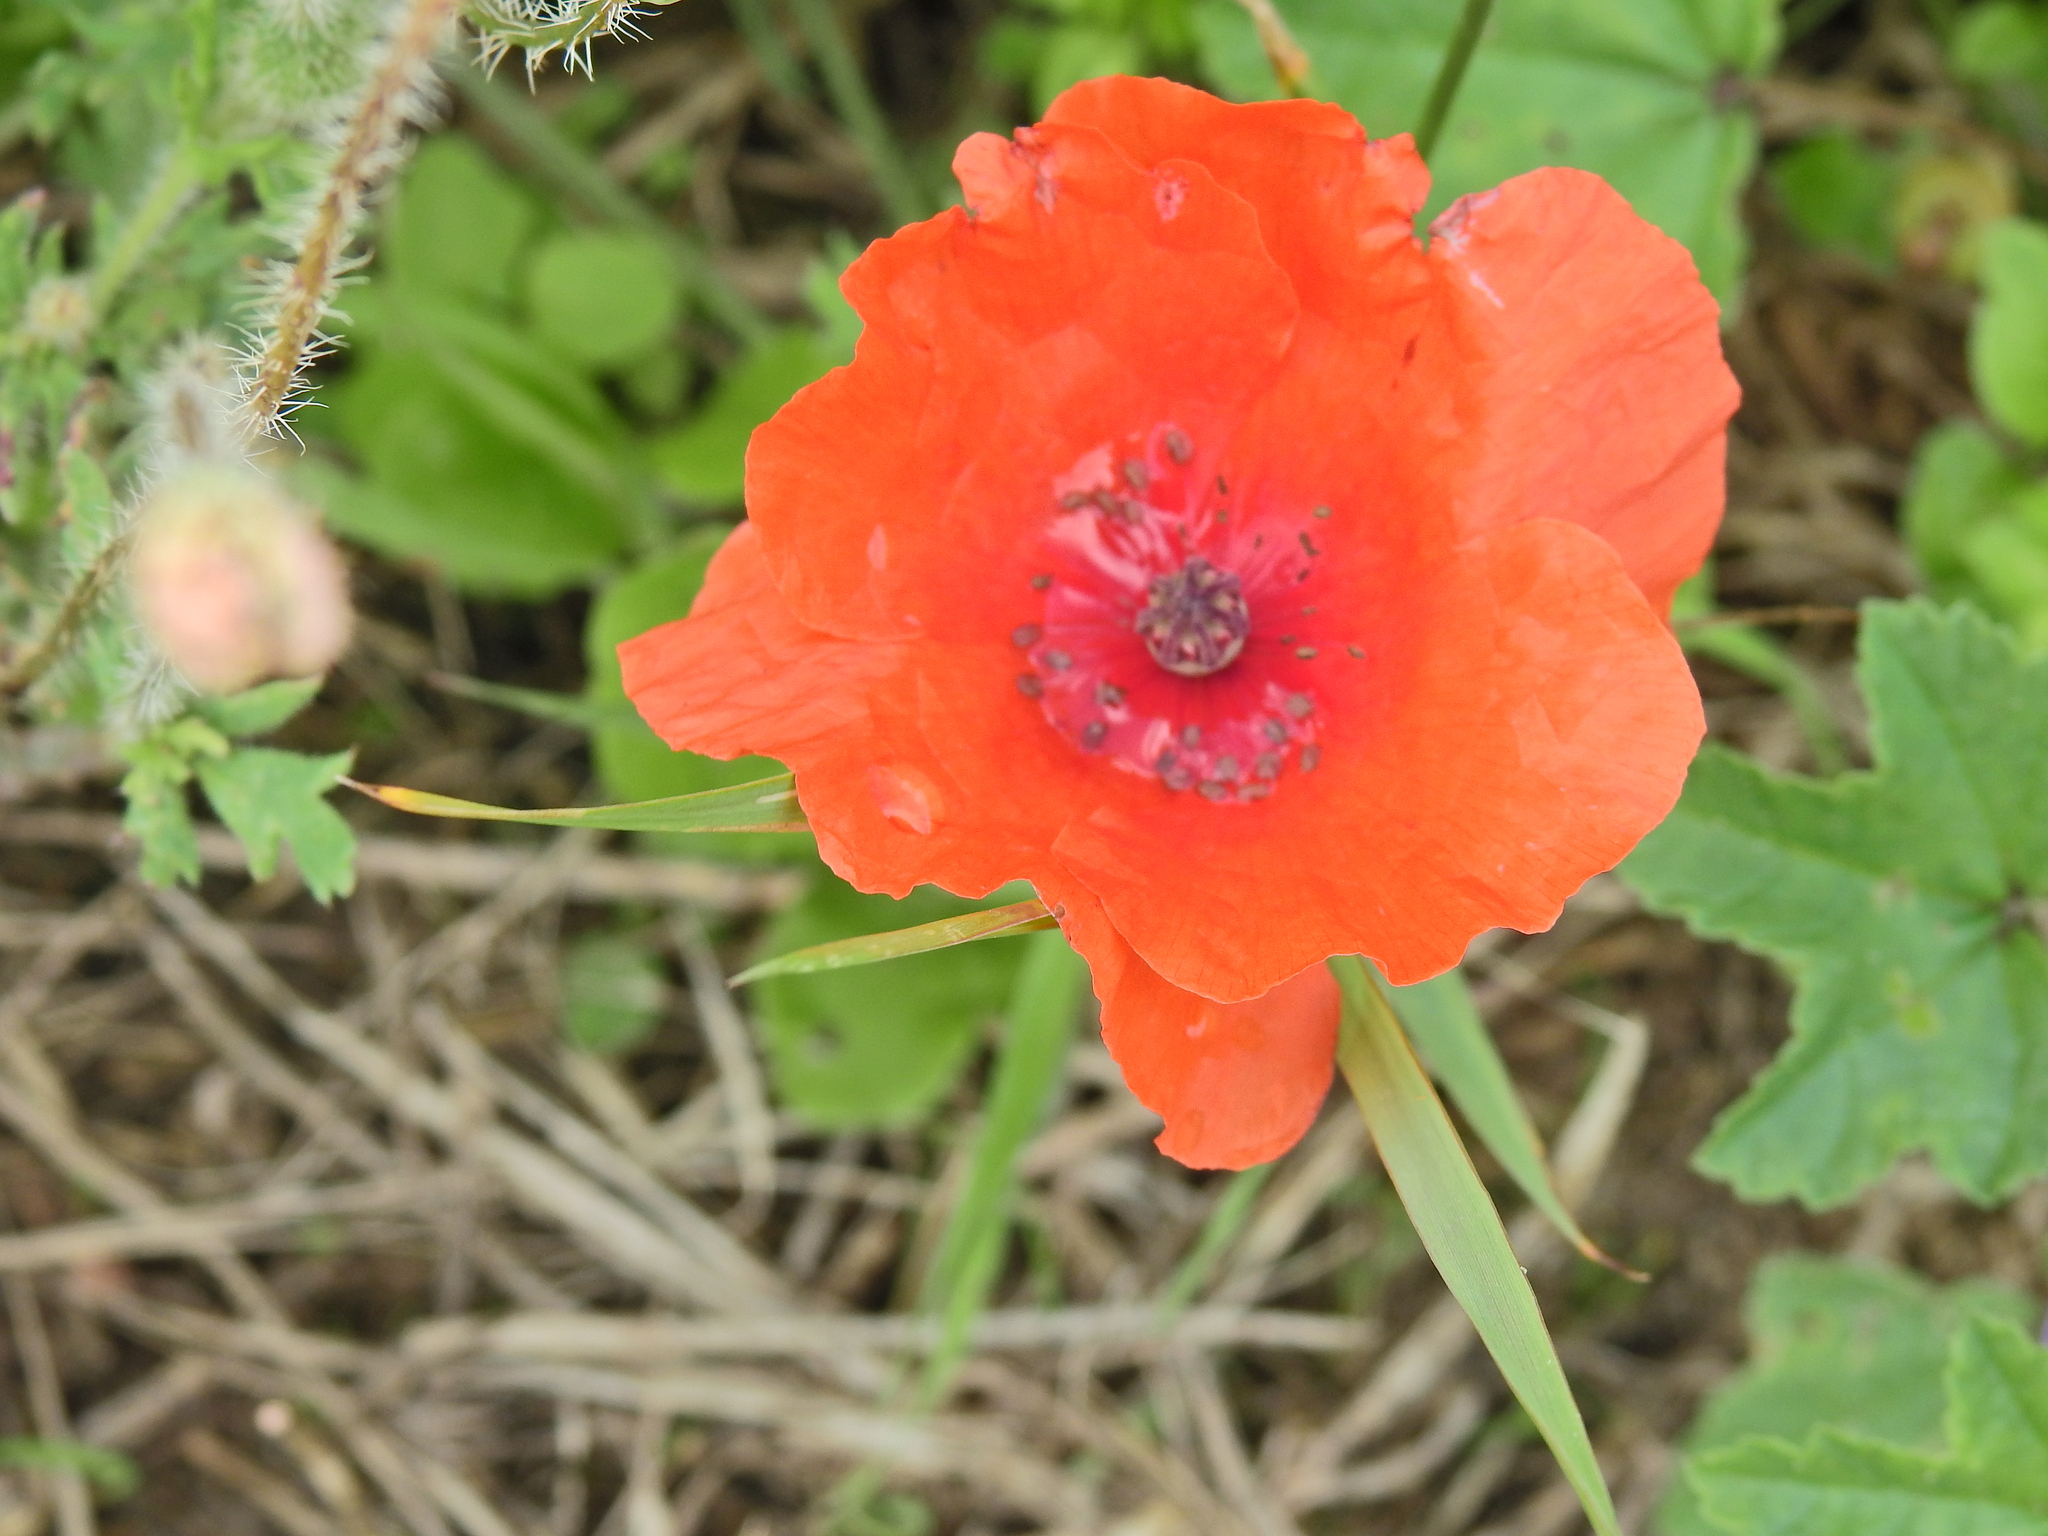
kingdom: Plantae
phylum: Tracheophyta
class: Magnoliopsida
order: Ranunculales
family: Papaveraceae
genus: Papaver
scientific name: Papaver rhoeas
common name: Corn poppy
